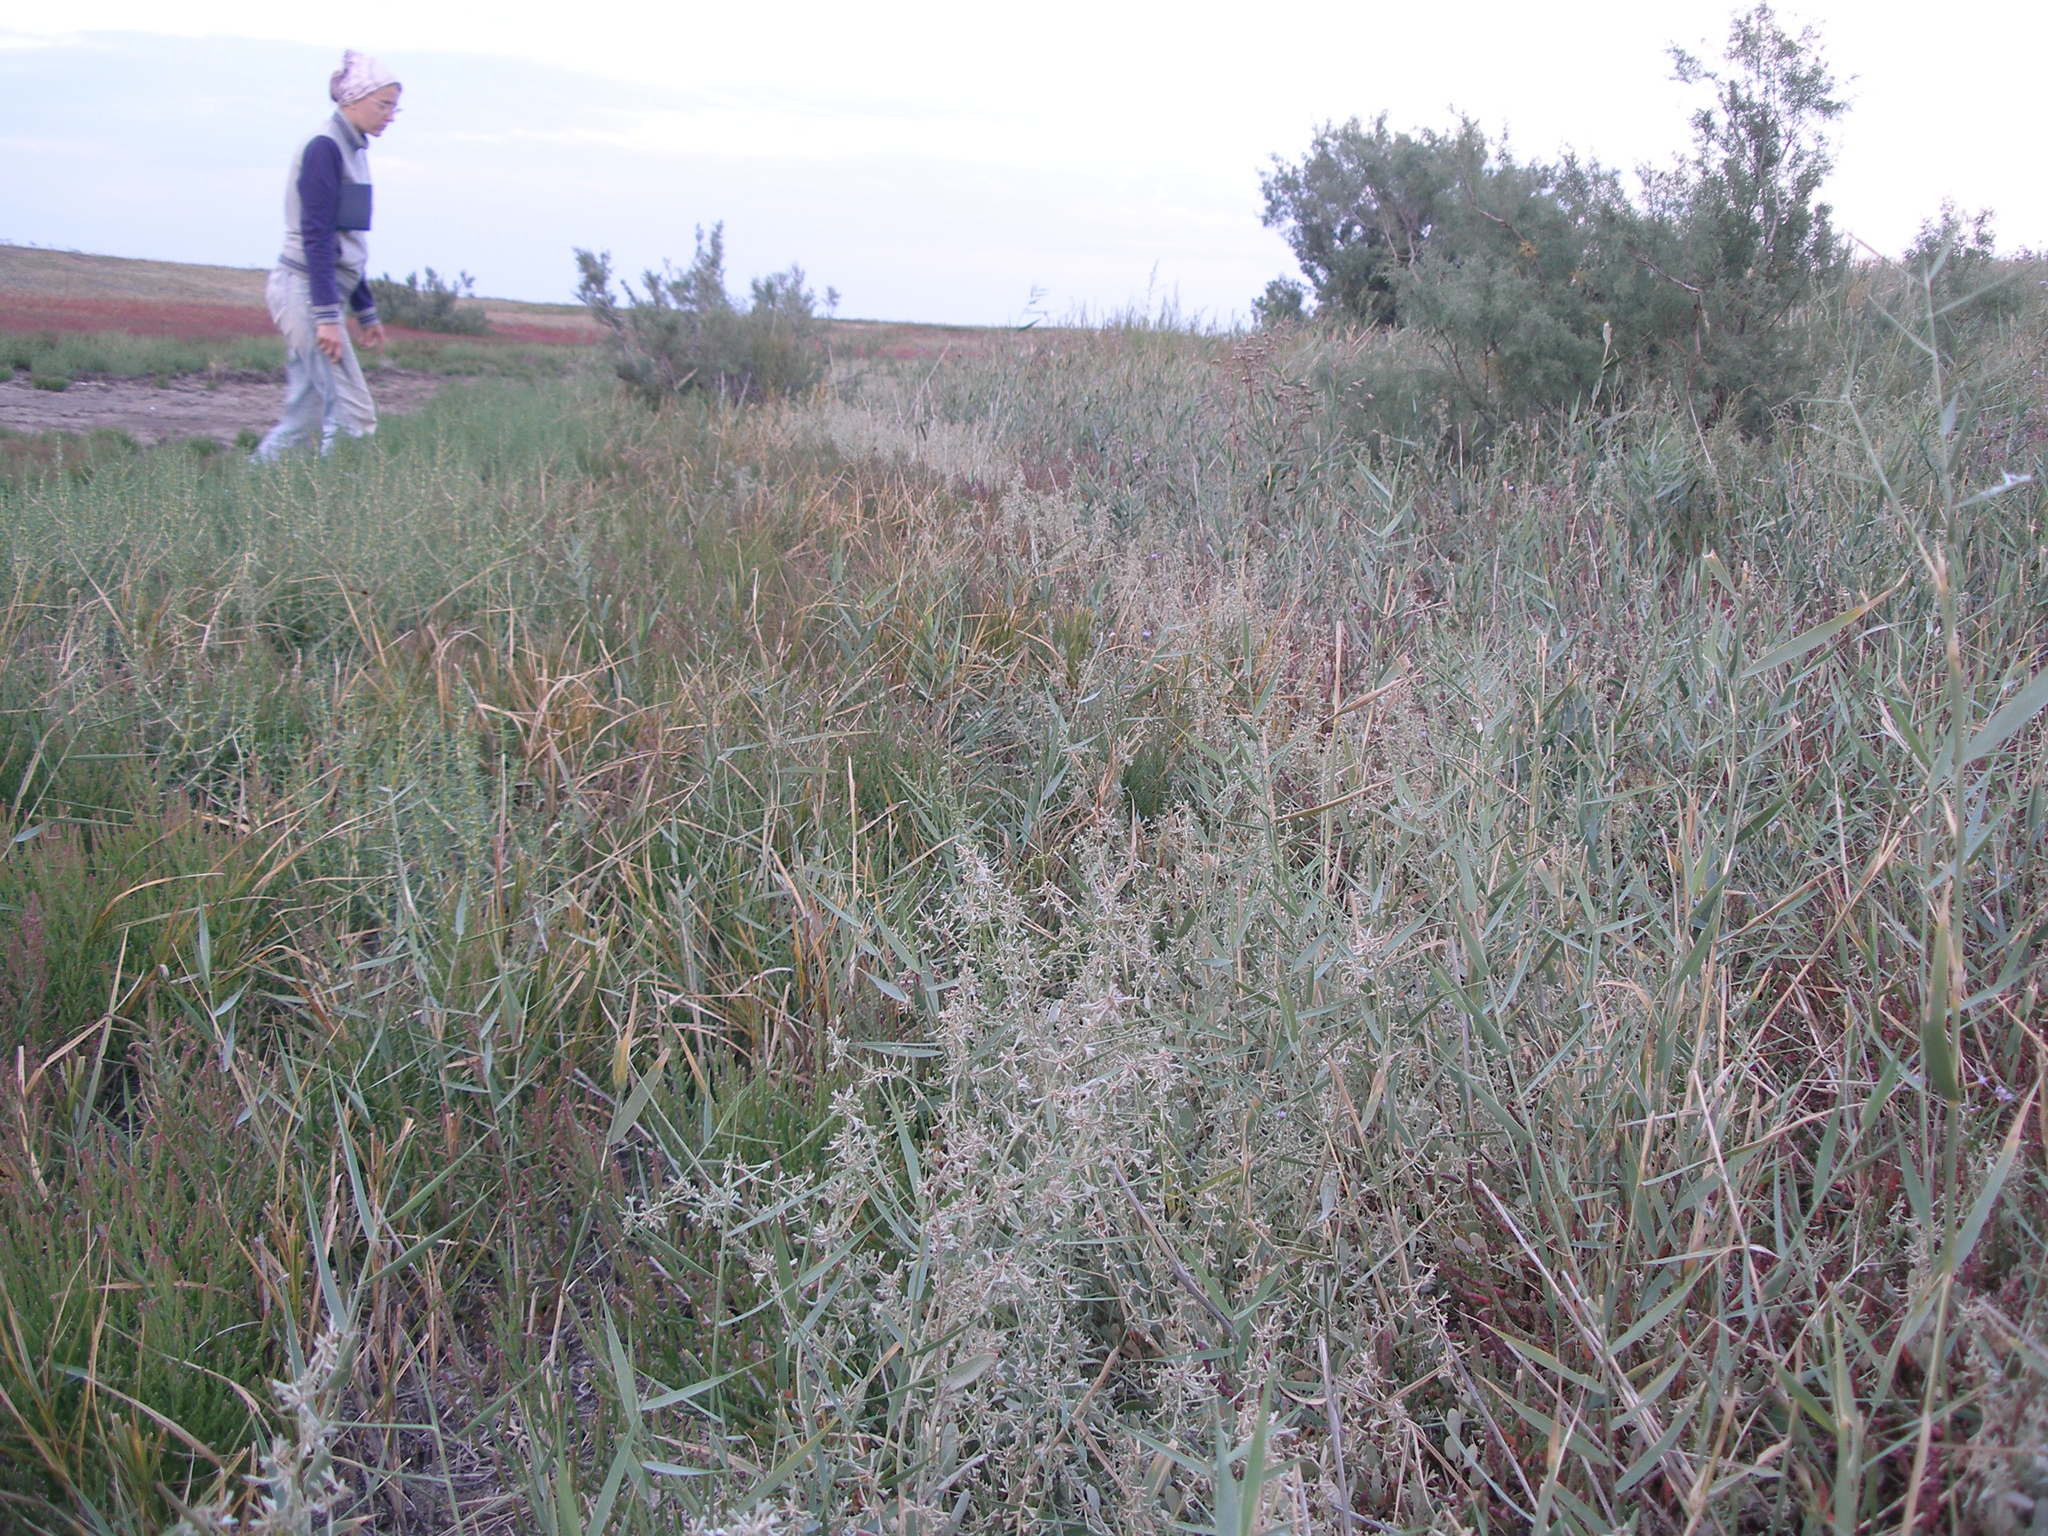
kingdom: Plantae
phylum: Tracheophyta
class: Magnoliopsida
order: Caryophyllales
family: Amaranthaceae
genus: Halimione
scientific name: Halimione pedunculata
